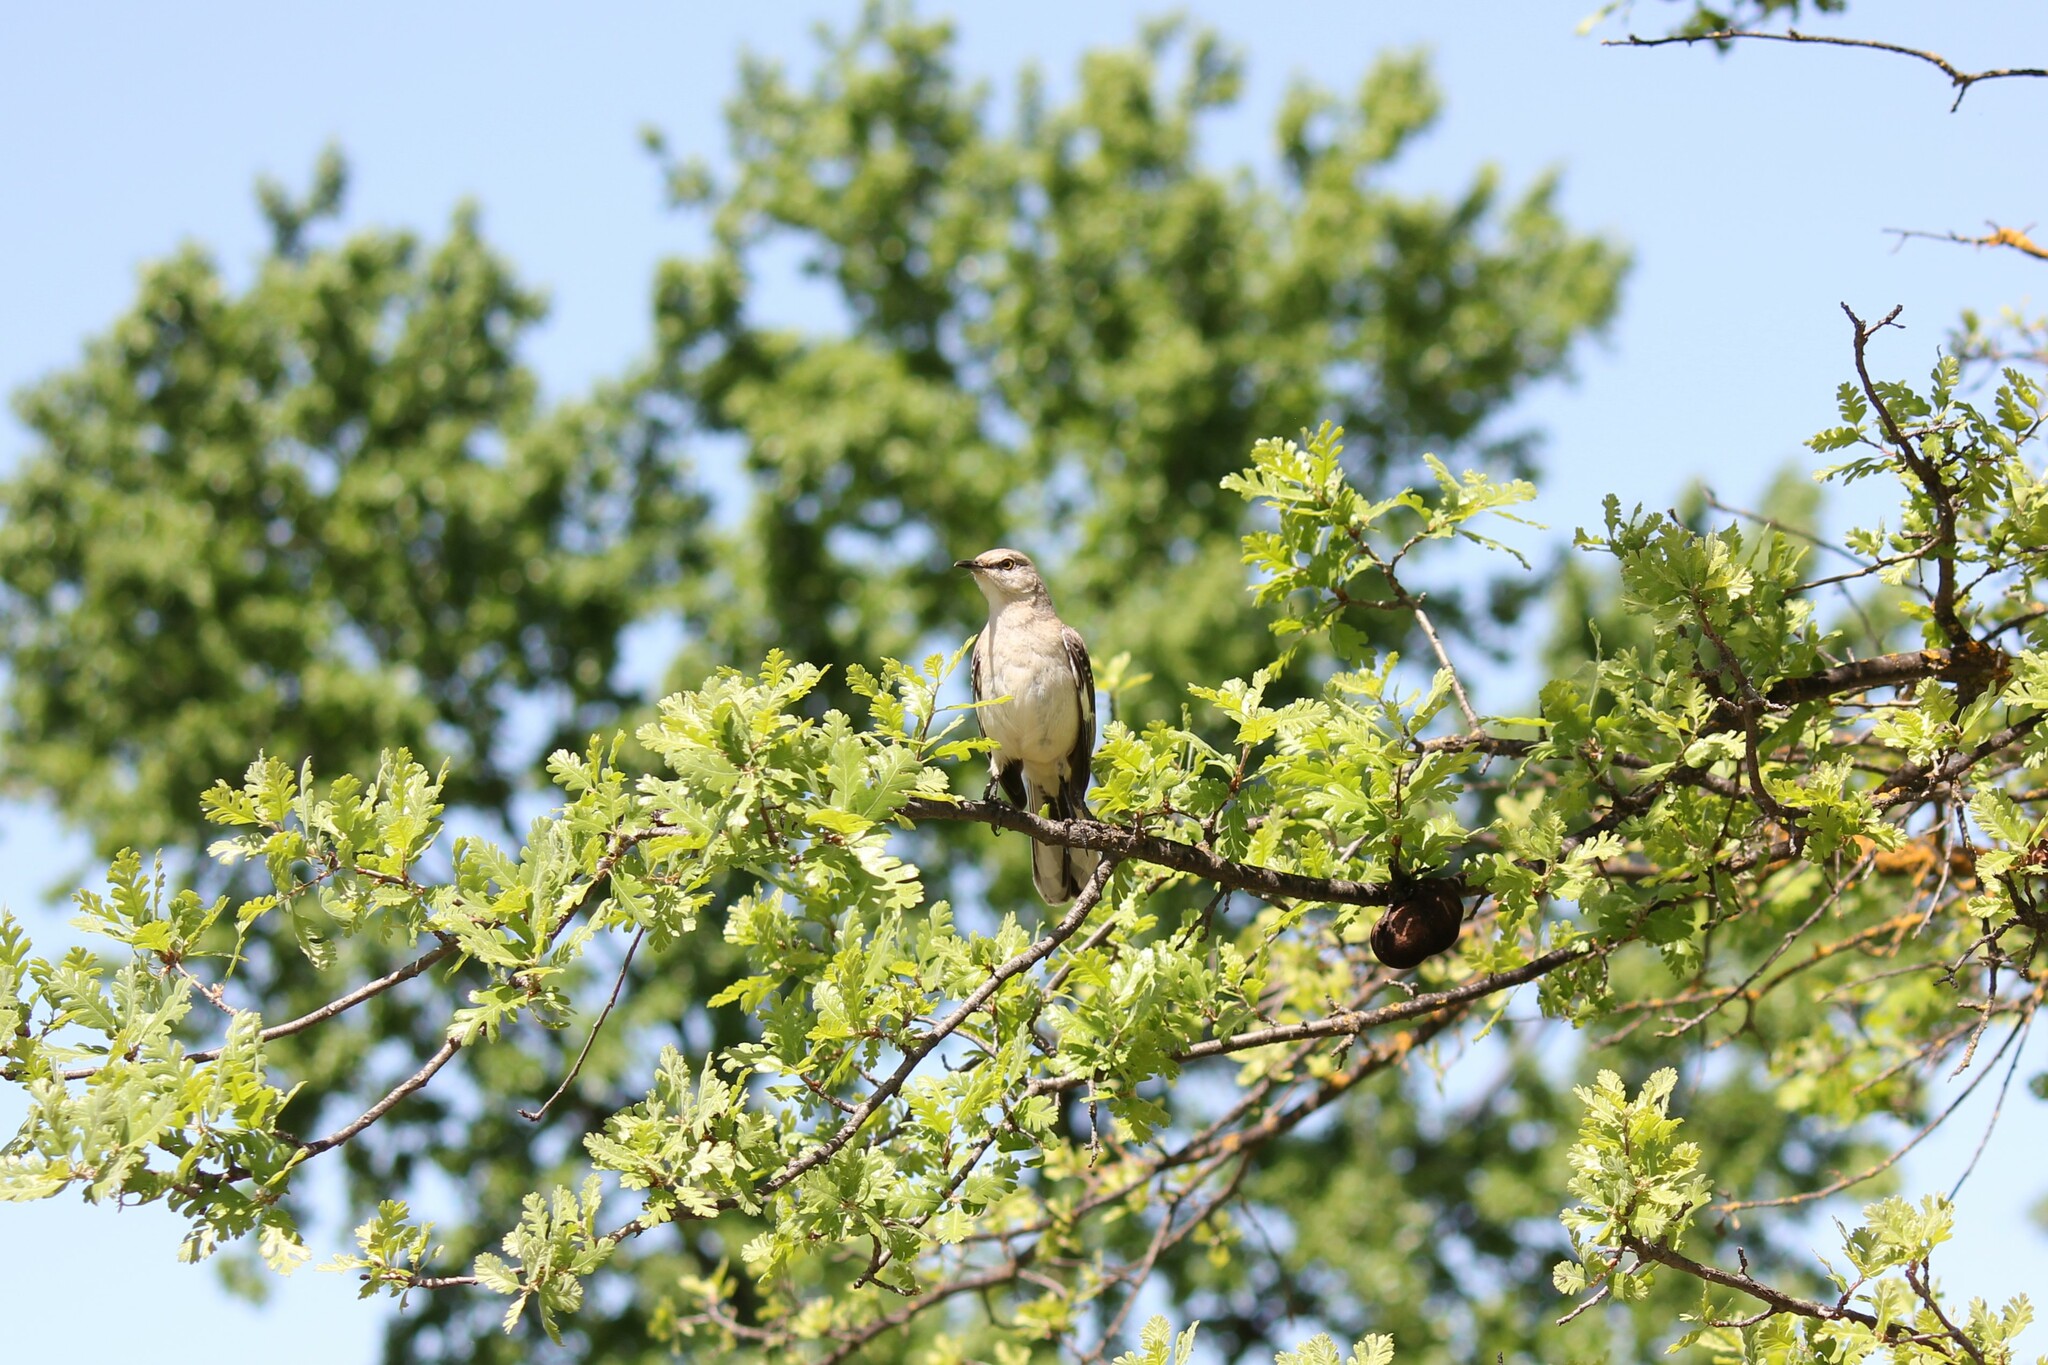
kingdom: Animalia
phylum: Chordata
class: Aves
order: Passeriformes
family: Mimidae
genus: Mimus
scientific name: Mimus polyglottos
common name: Northern mockingbird
